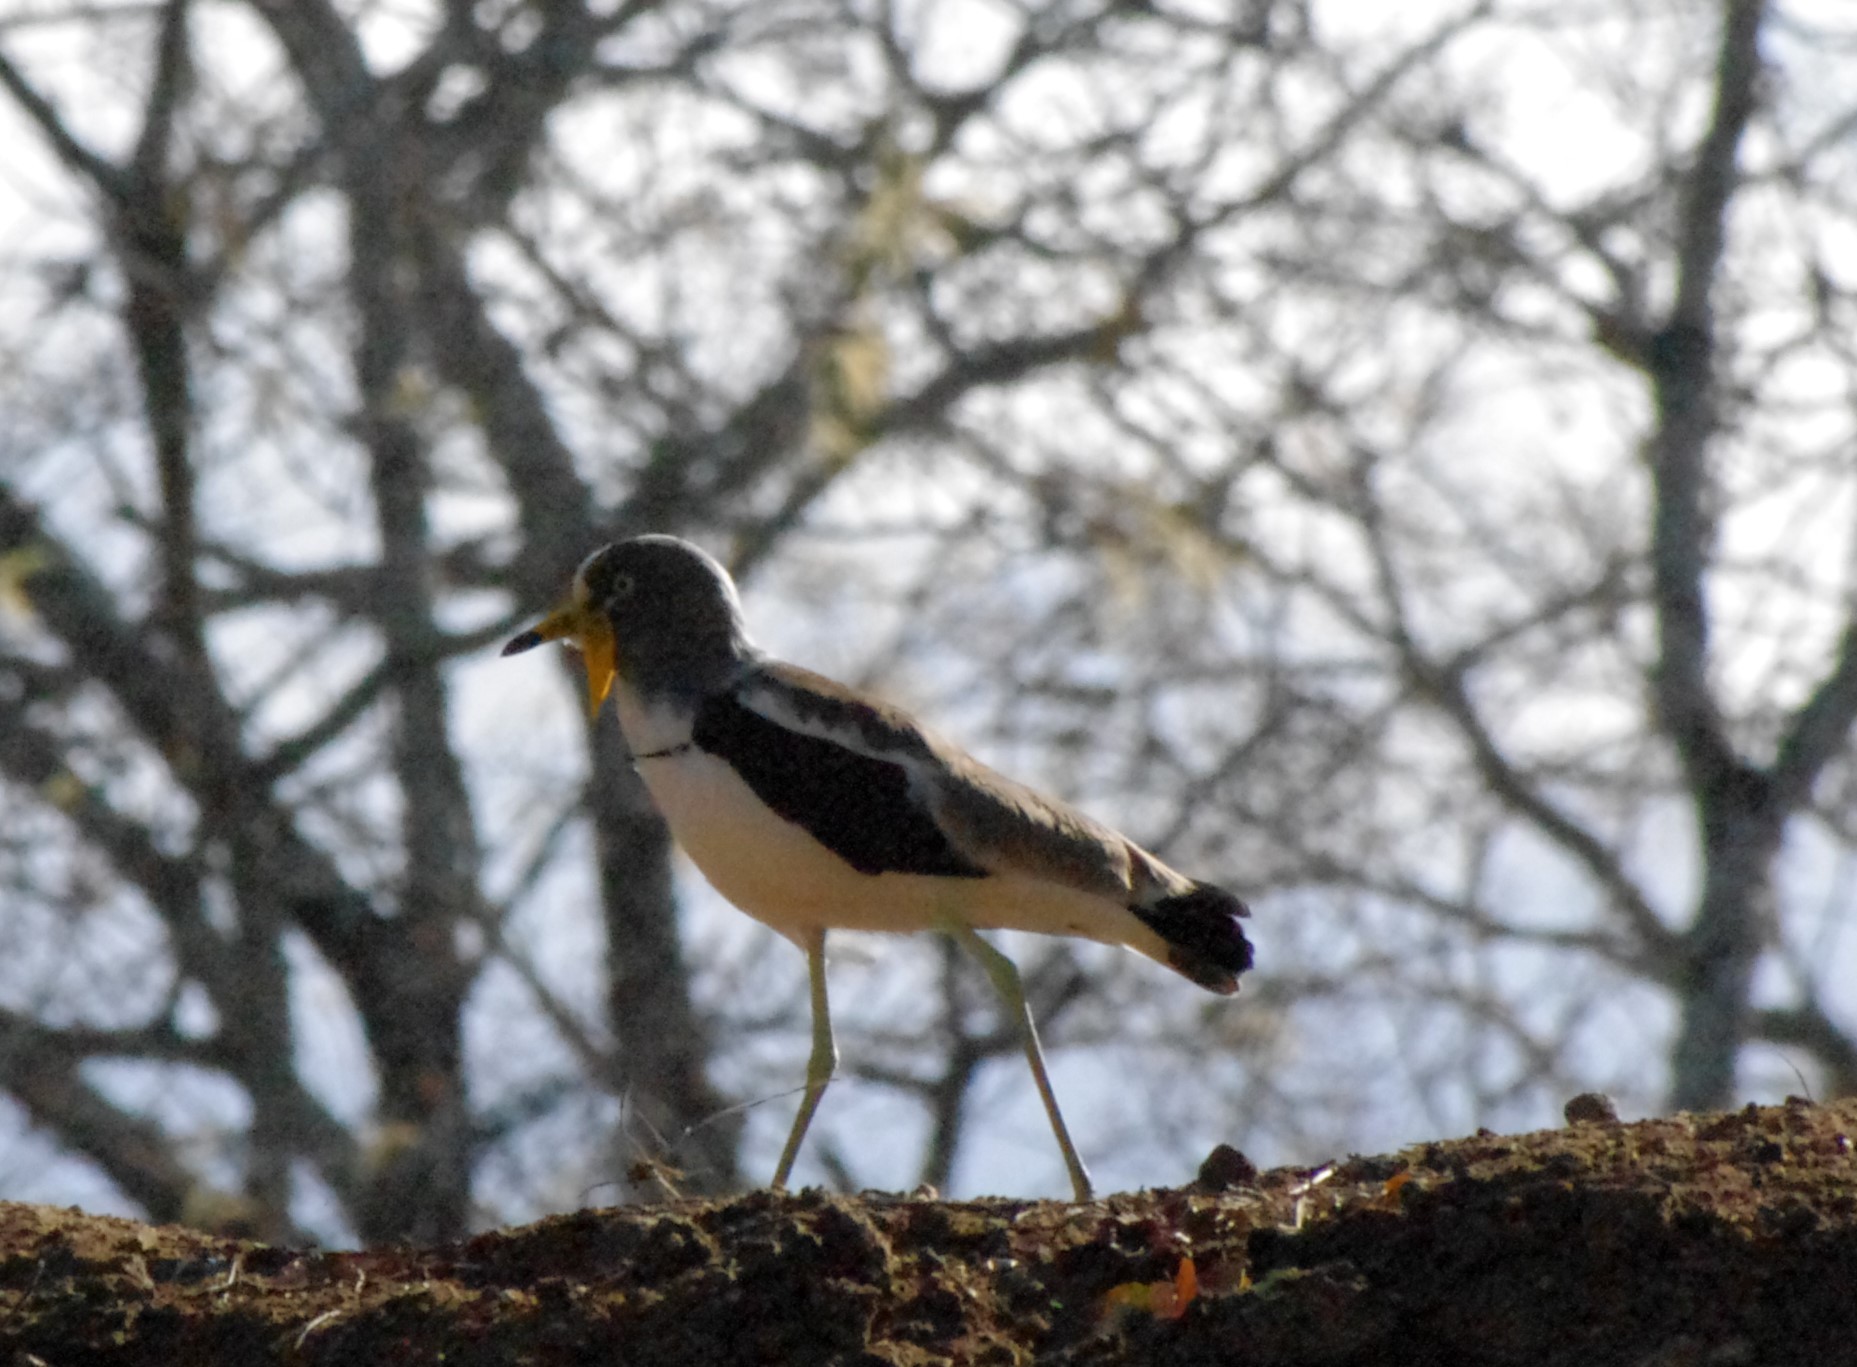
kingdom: Animalia
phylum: Chordata
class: Aves
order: Charadriiformes
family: Charadriidae
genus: Vanellus
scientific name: Vanellus albiceps
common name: White-crowned lapwing
